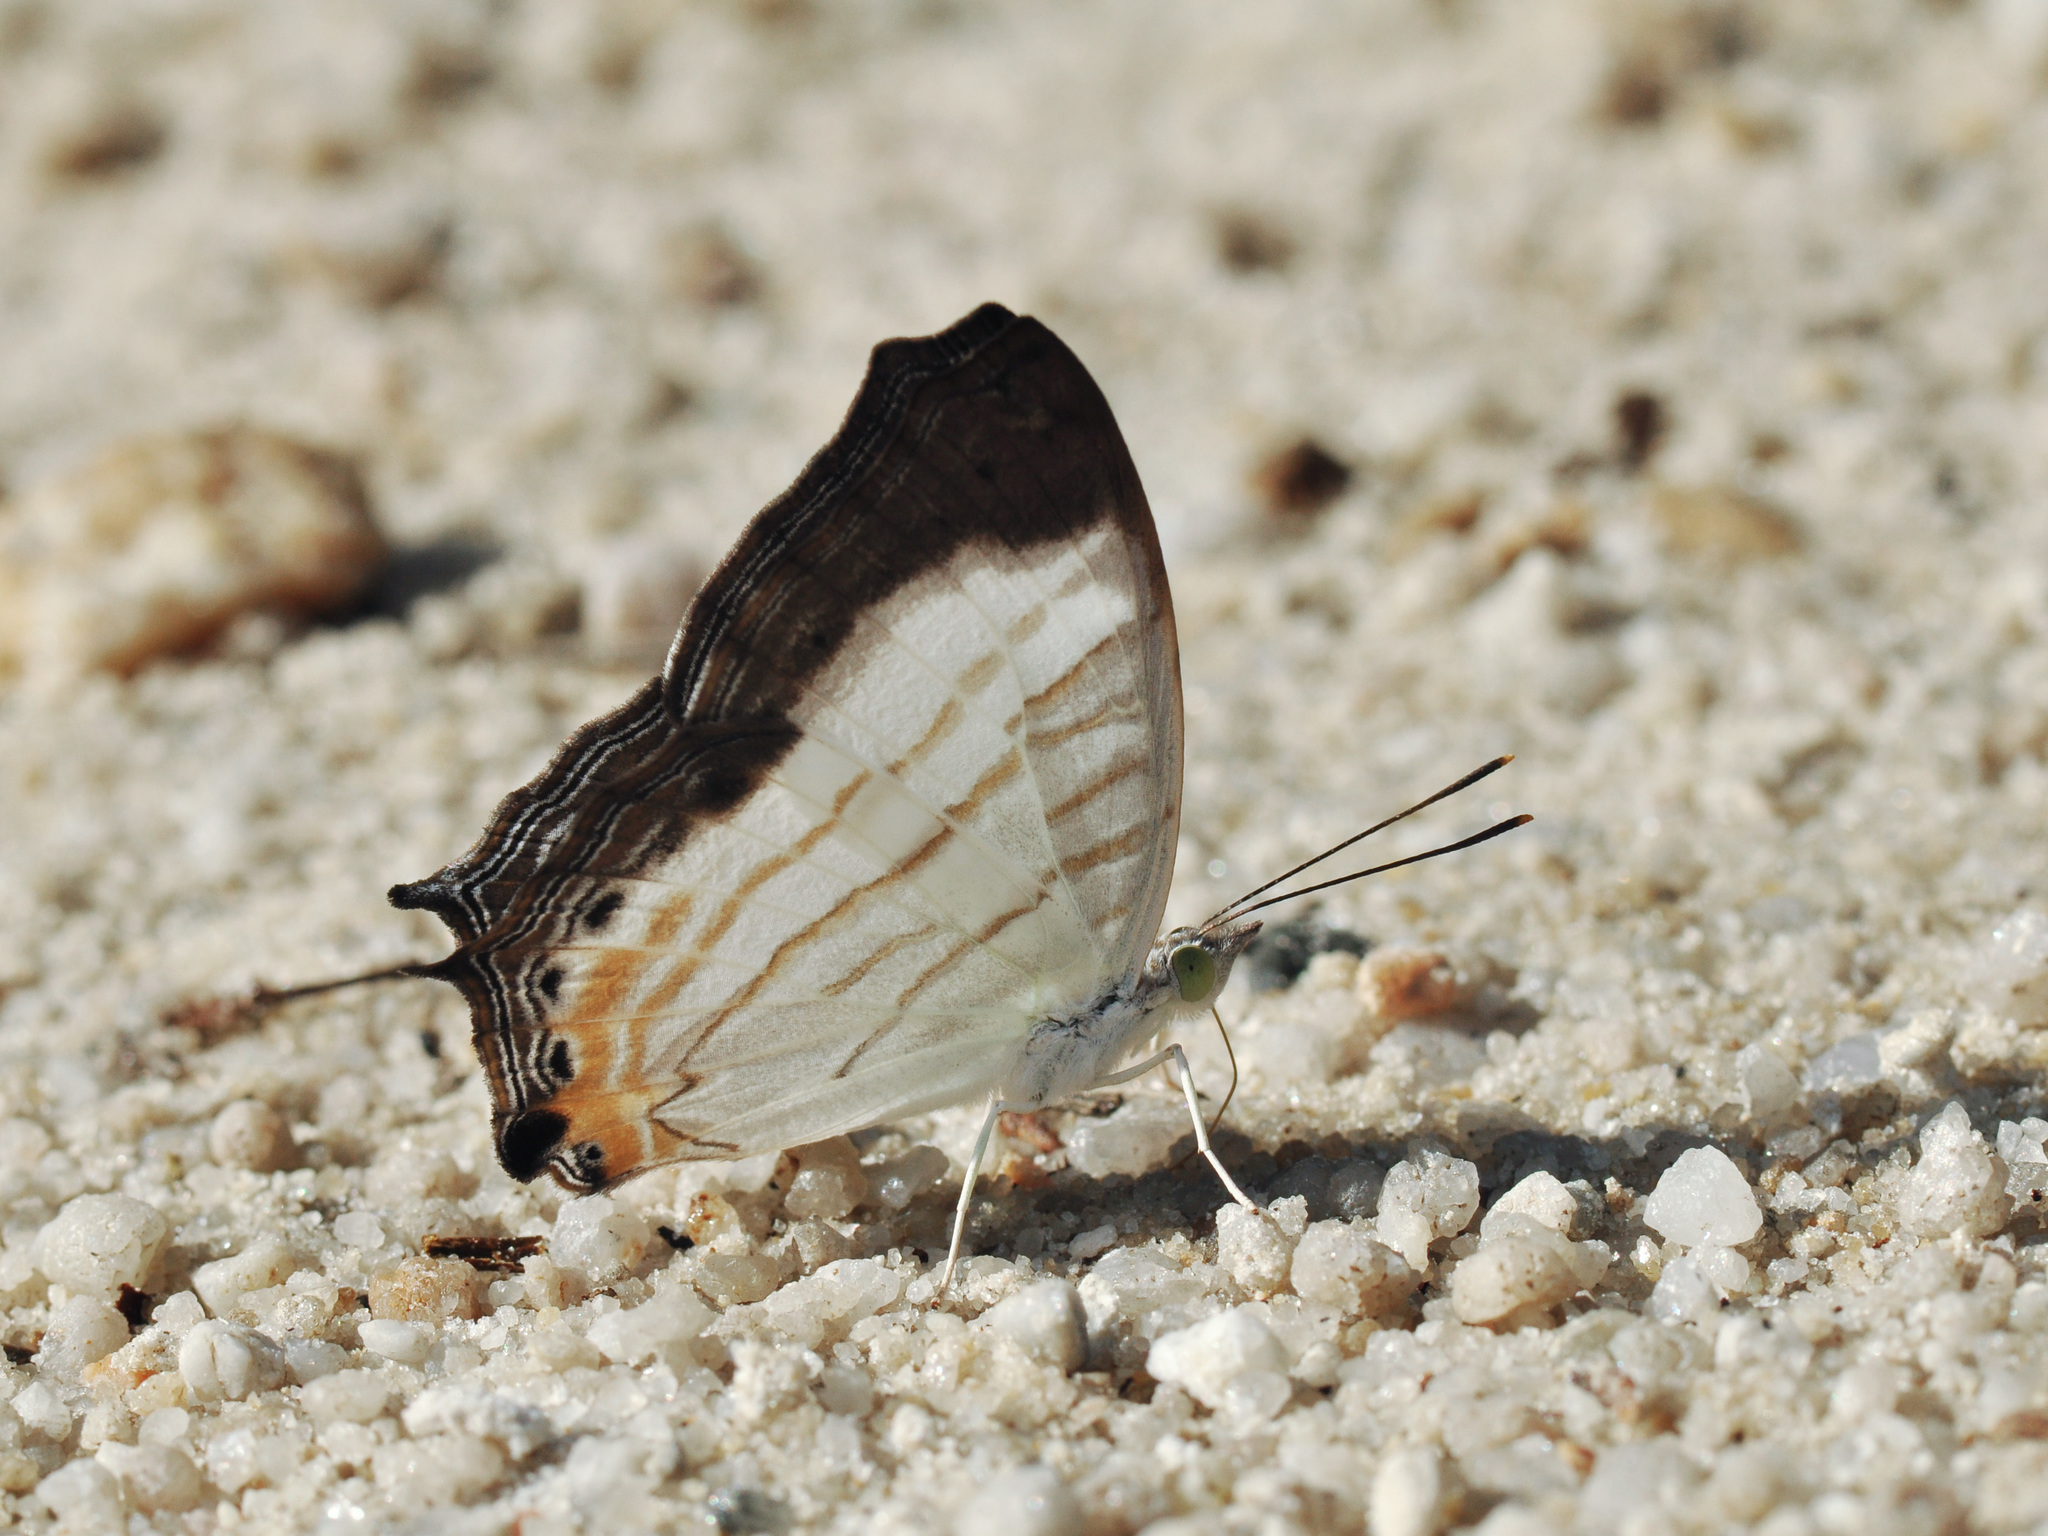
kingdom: Animalia
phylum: Arthropoda
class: Insecta
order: Lepidoptera
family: Nymphalidae
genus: Cyrestis
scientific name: Cyrestis themire
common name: Little mapwing
